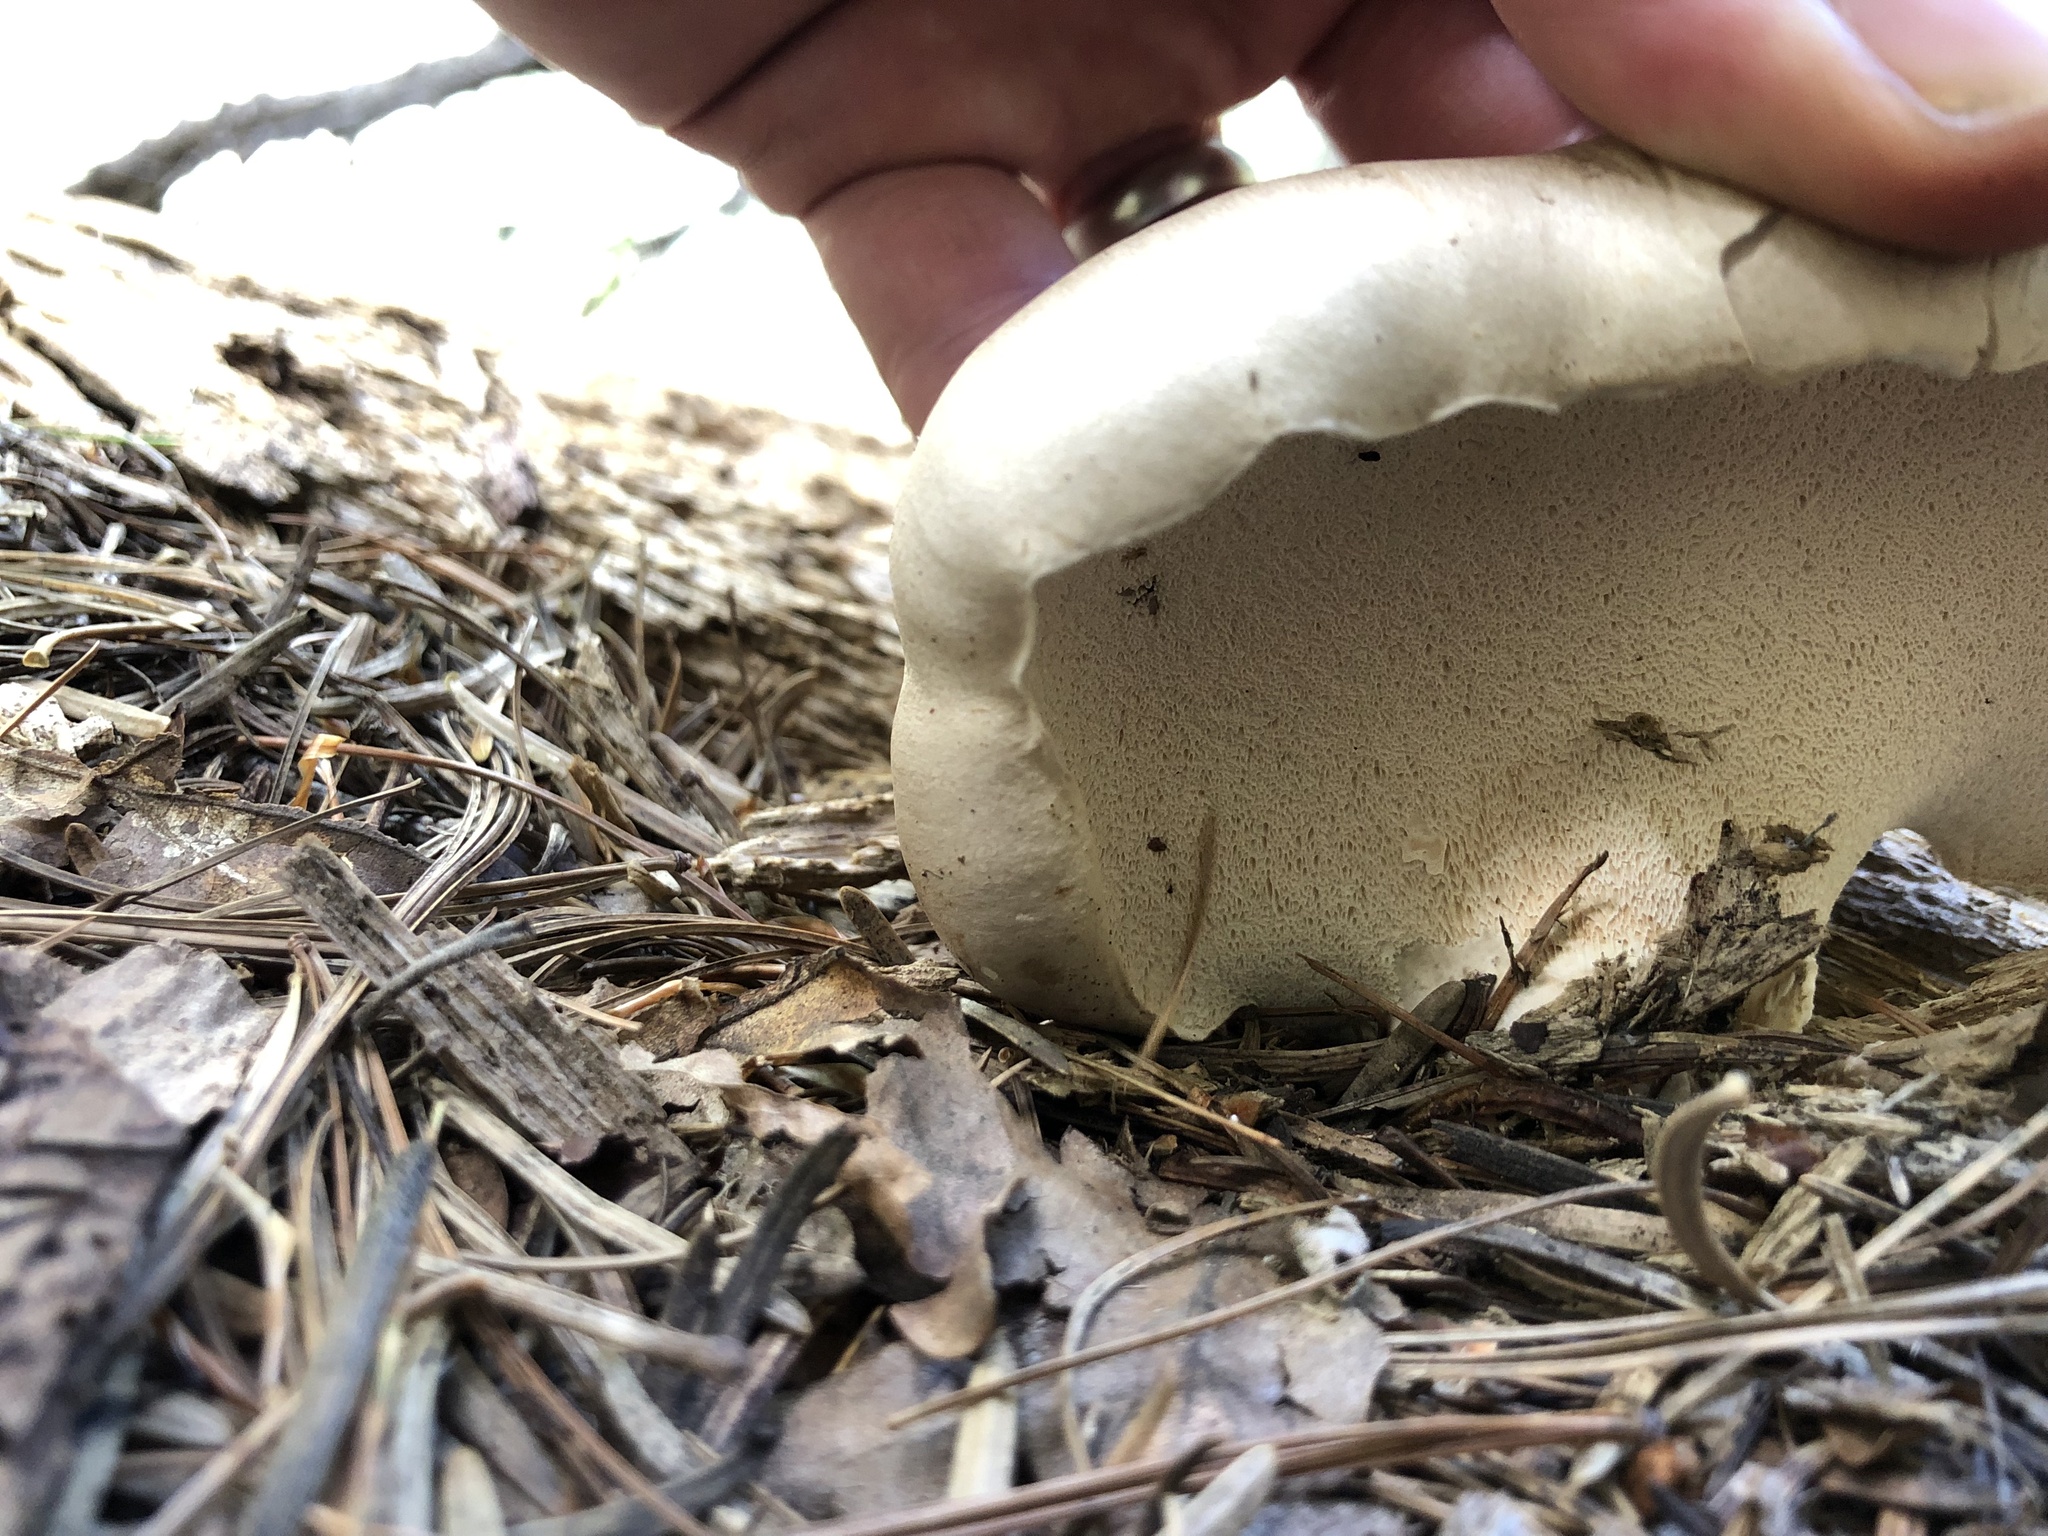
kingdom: Fungi
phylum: Basidiomycota
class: Agaricomycetes
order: Polyporales
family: Dacryobolaceae
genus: Osteina
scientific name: Osteina obducta
